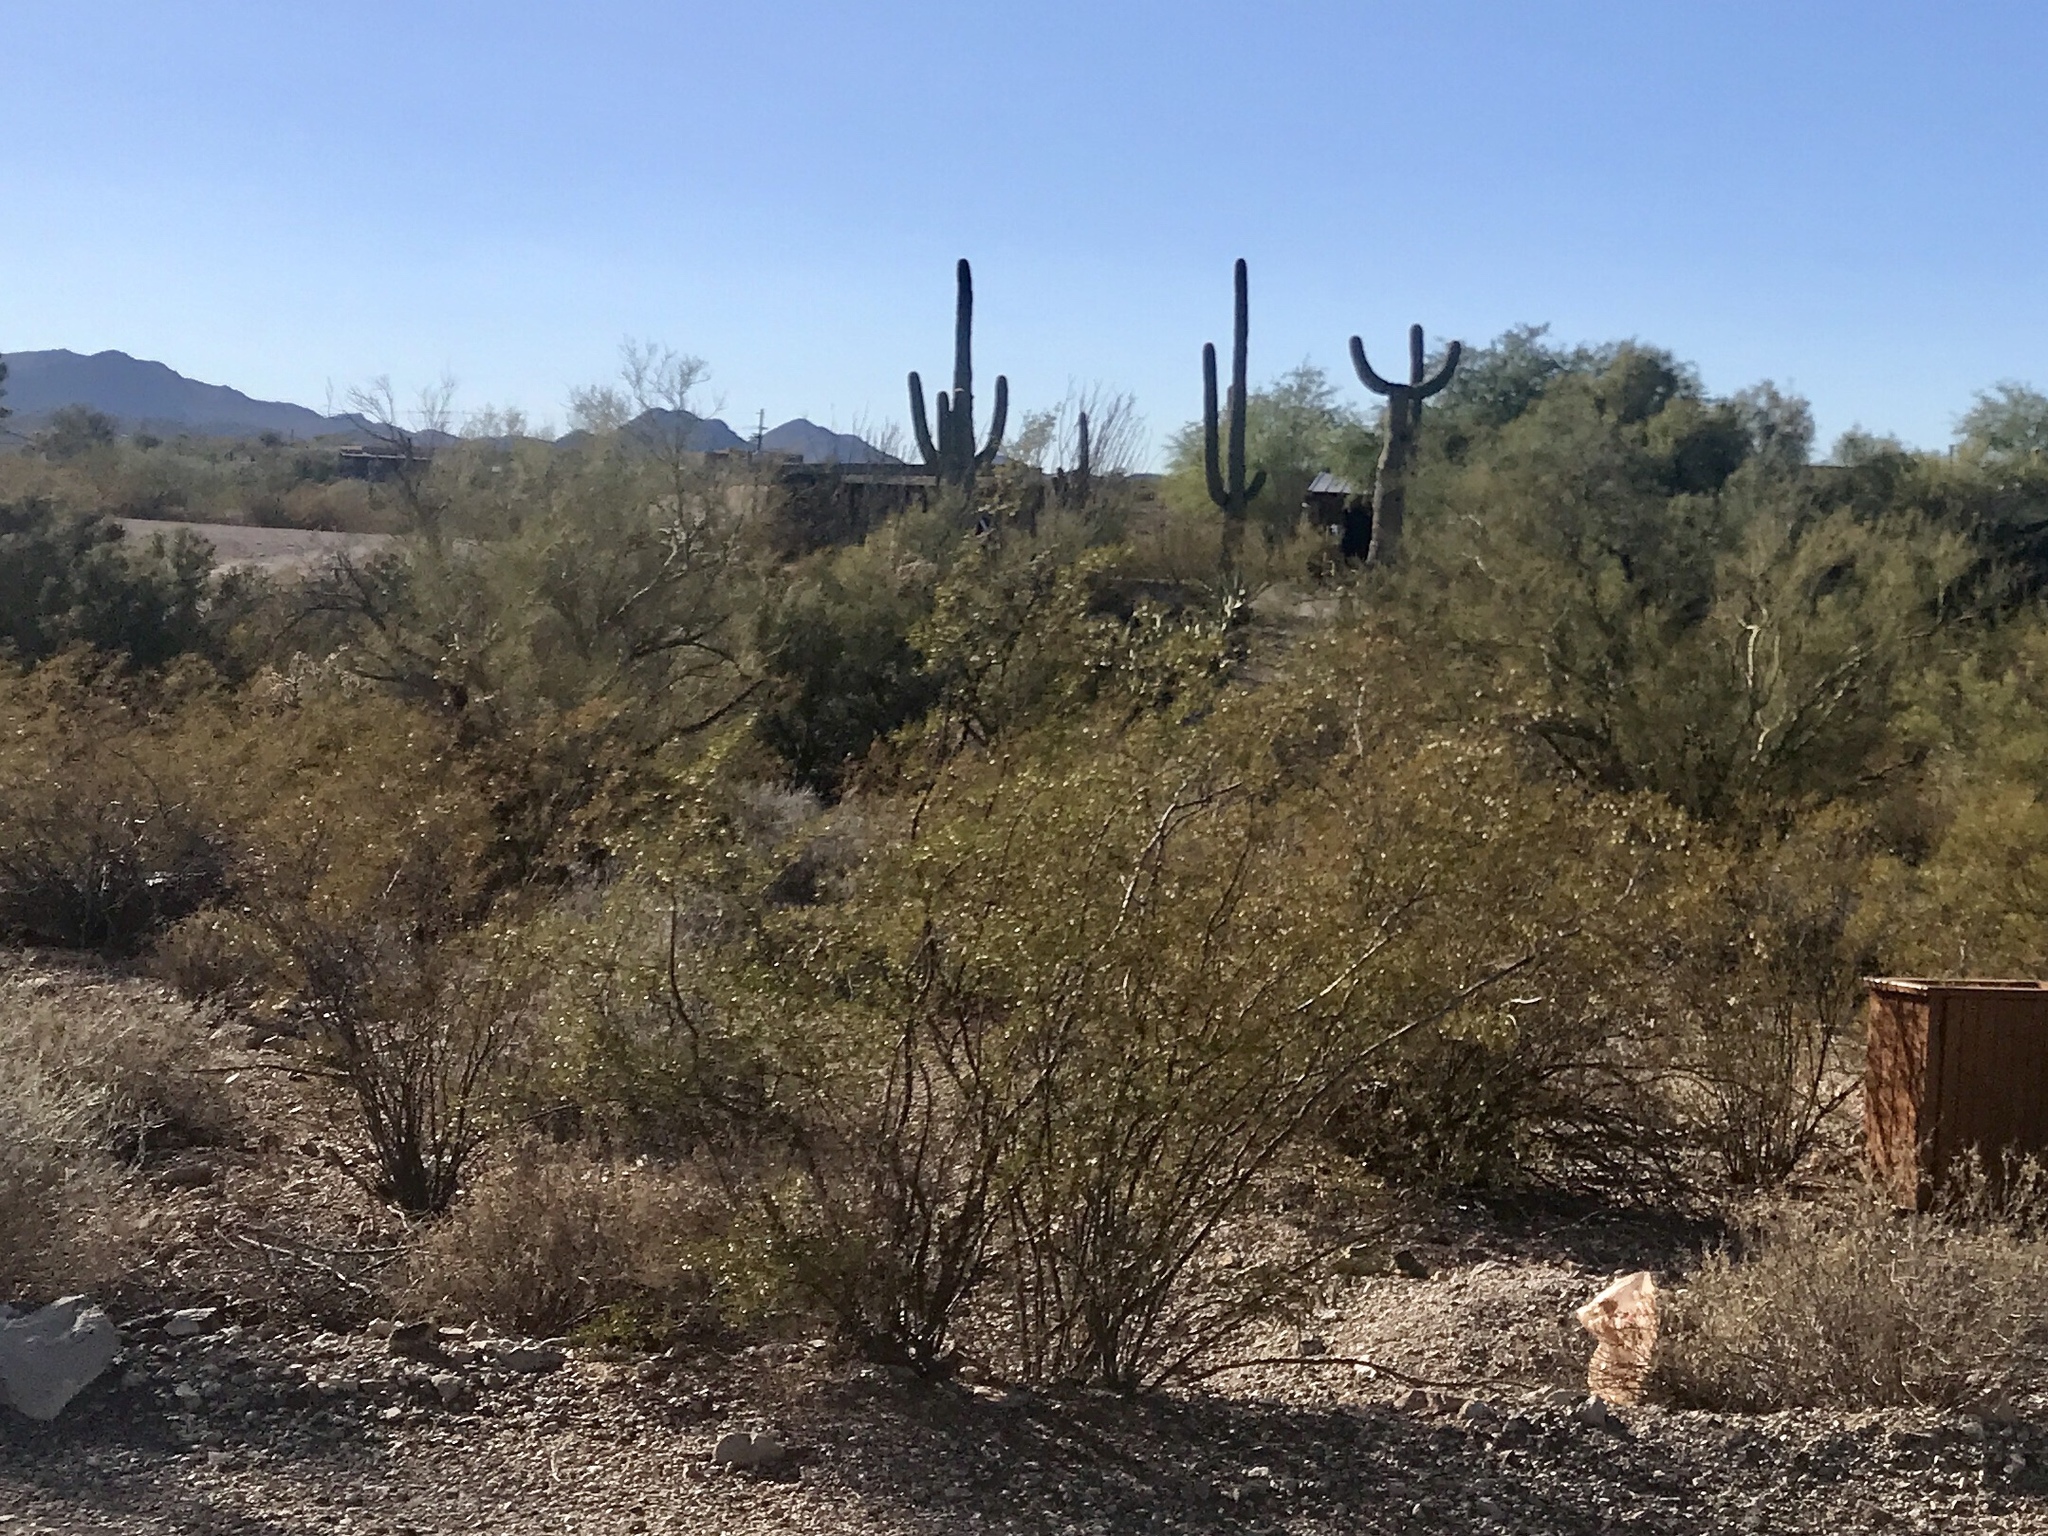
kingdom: Plantae
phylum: Tracheophyta
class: Magnoliopsida
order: Zygophyllales
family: Zygophyllaceae
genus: Larrea
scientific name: Larrea tridentata
